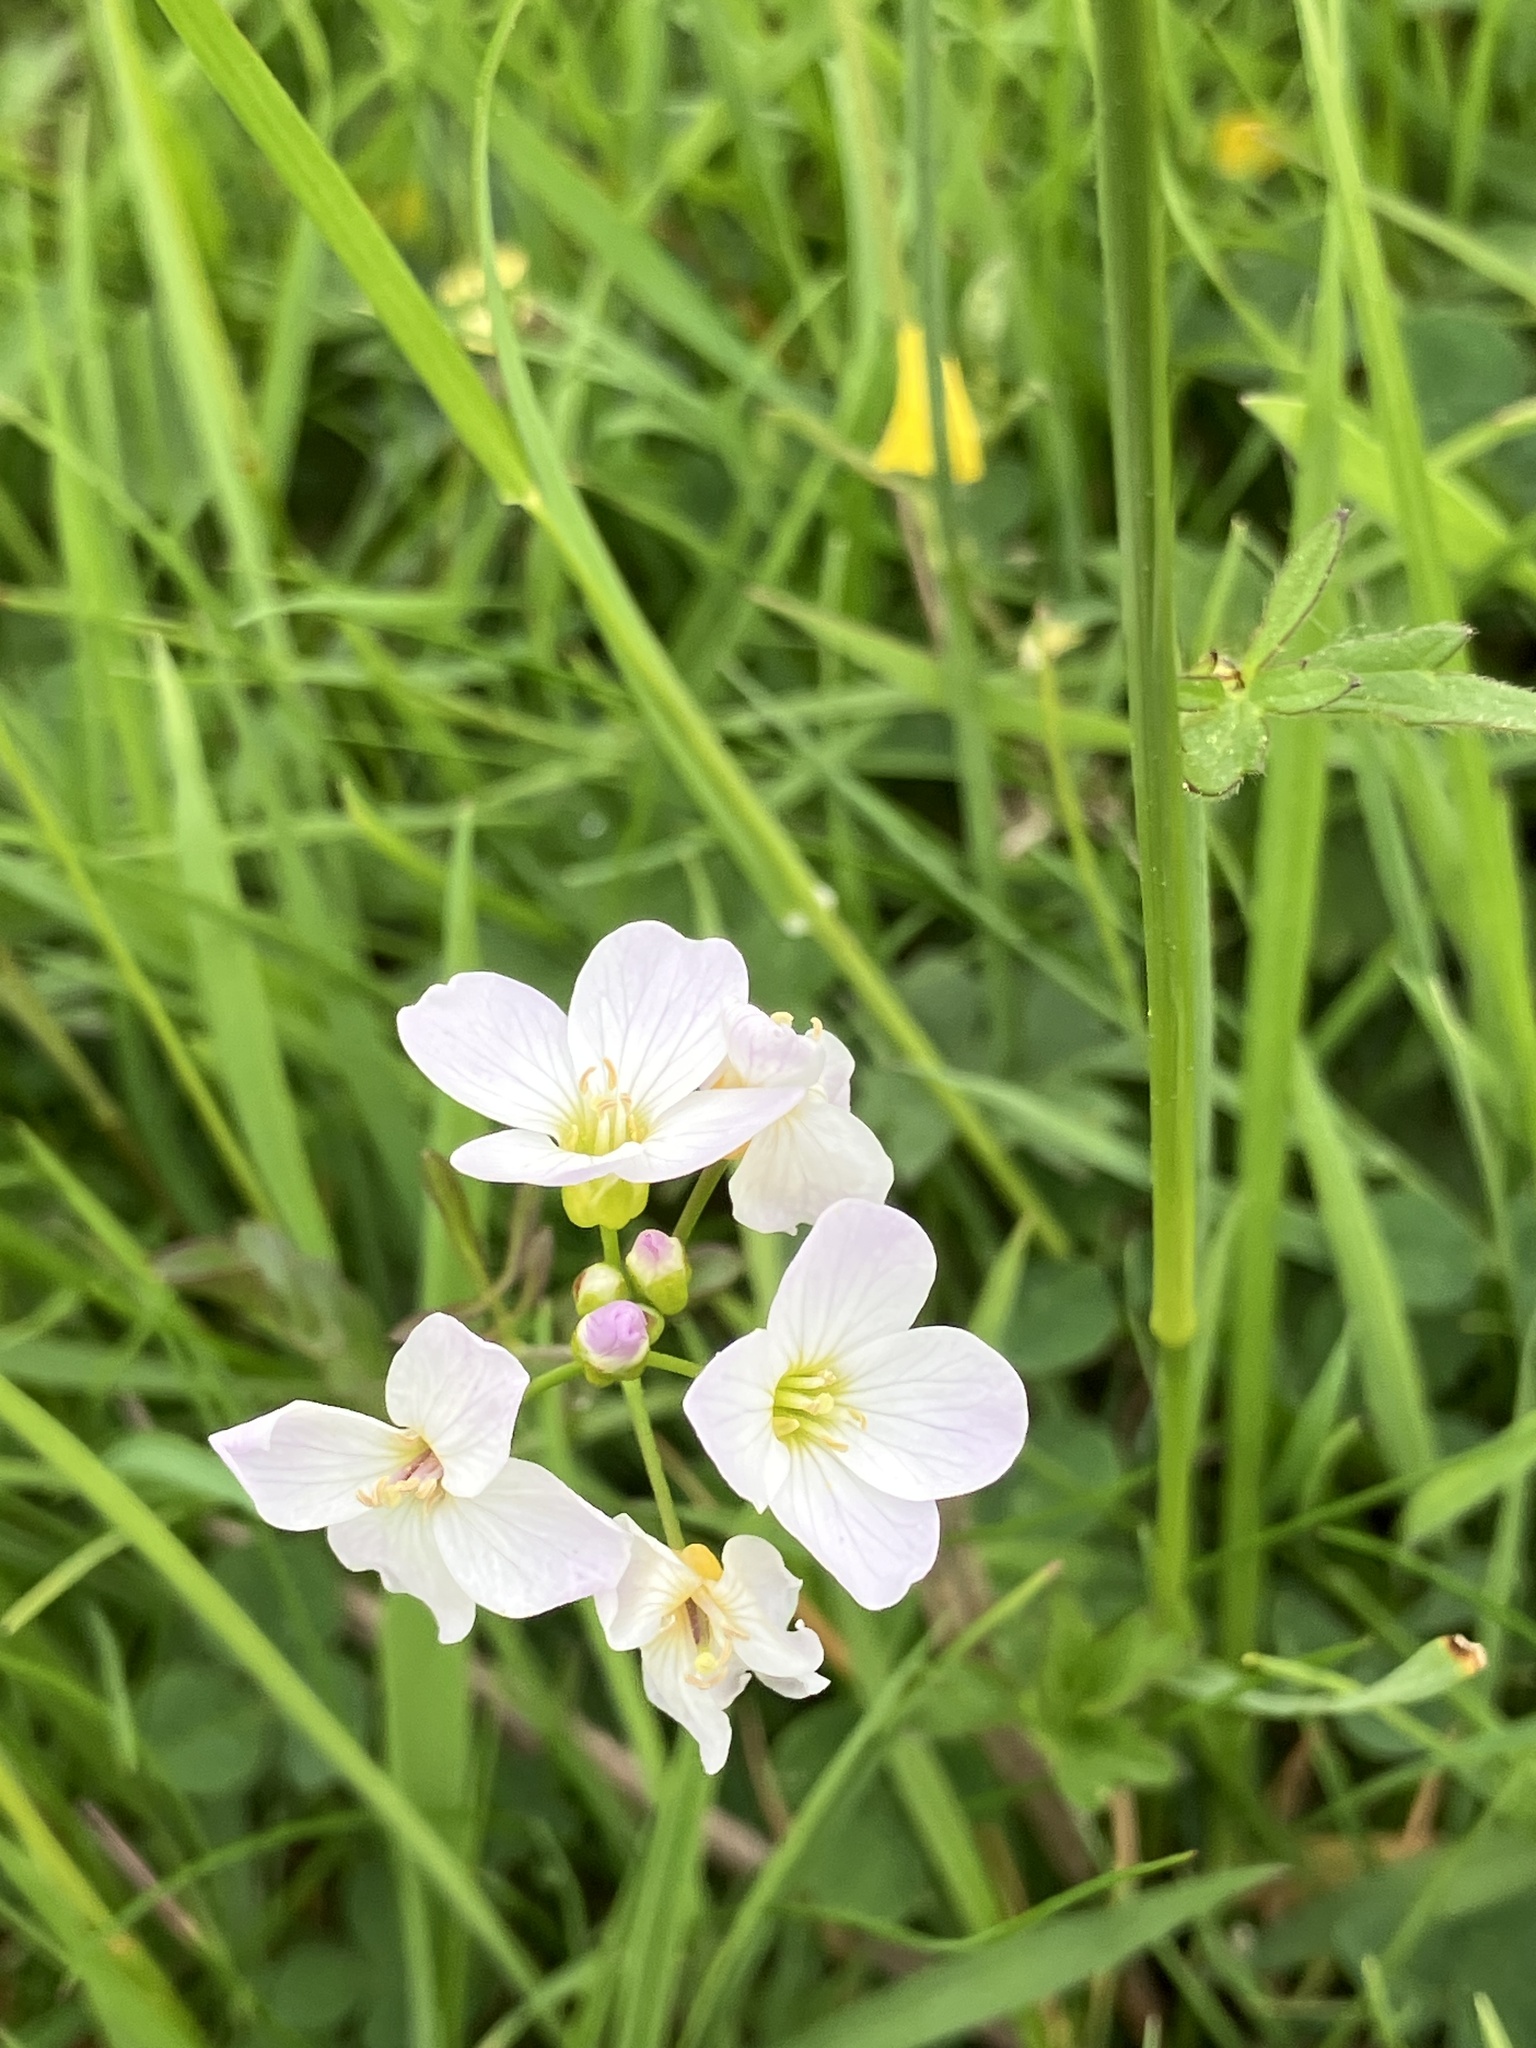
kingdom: Plantae
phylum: Tracheophyta
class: Magnoliopsida
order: Brassicales
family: Brassicaceae
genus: Cardamine
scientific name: Cardamine pratensis
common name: Cuckoo flower
